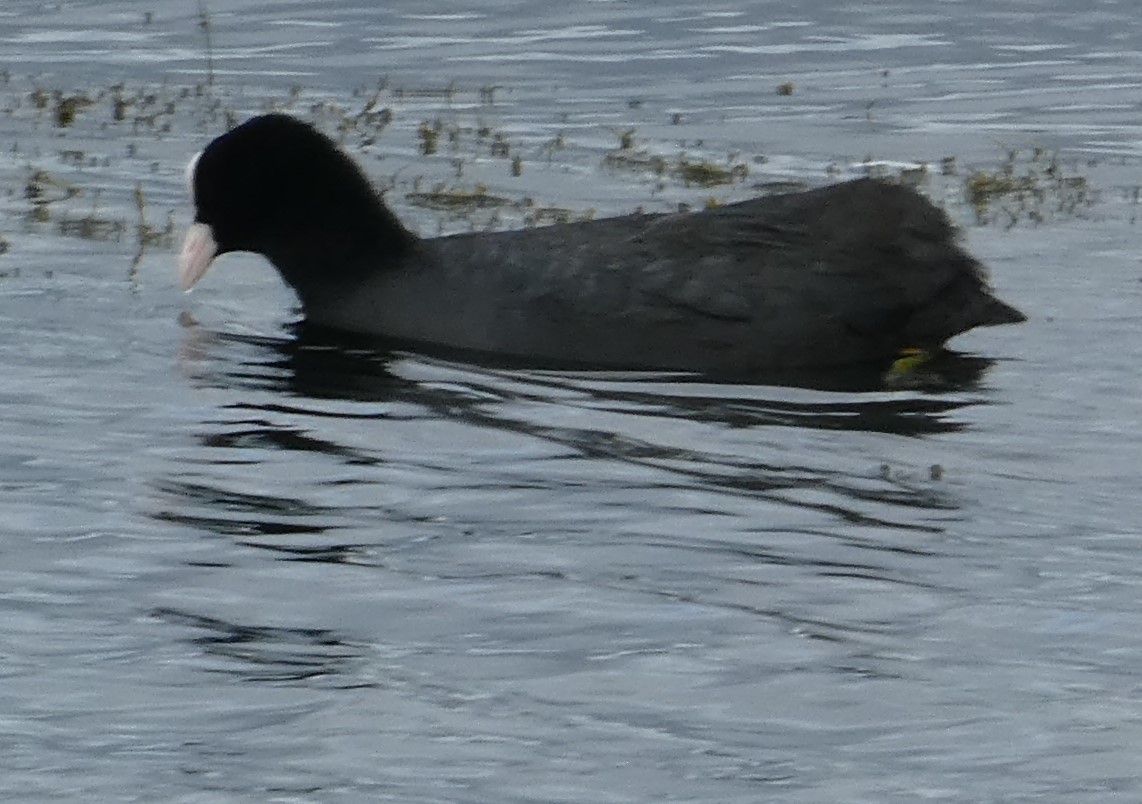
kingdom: Animalia
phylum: Chordata
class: Aves
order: Gruiformes
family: Rallidae
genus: Fulica
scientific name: Fulica atra
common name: Eurasian coot
